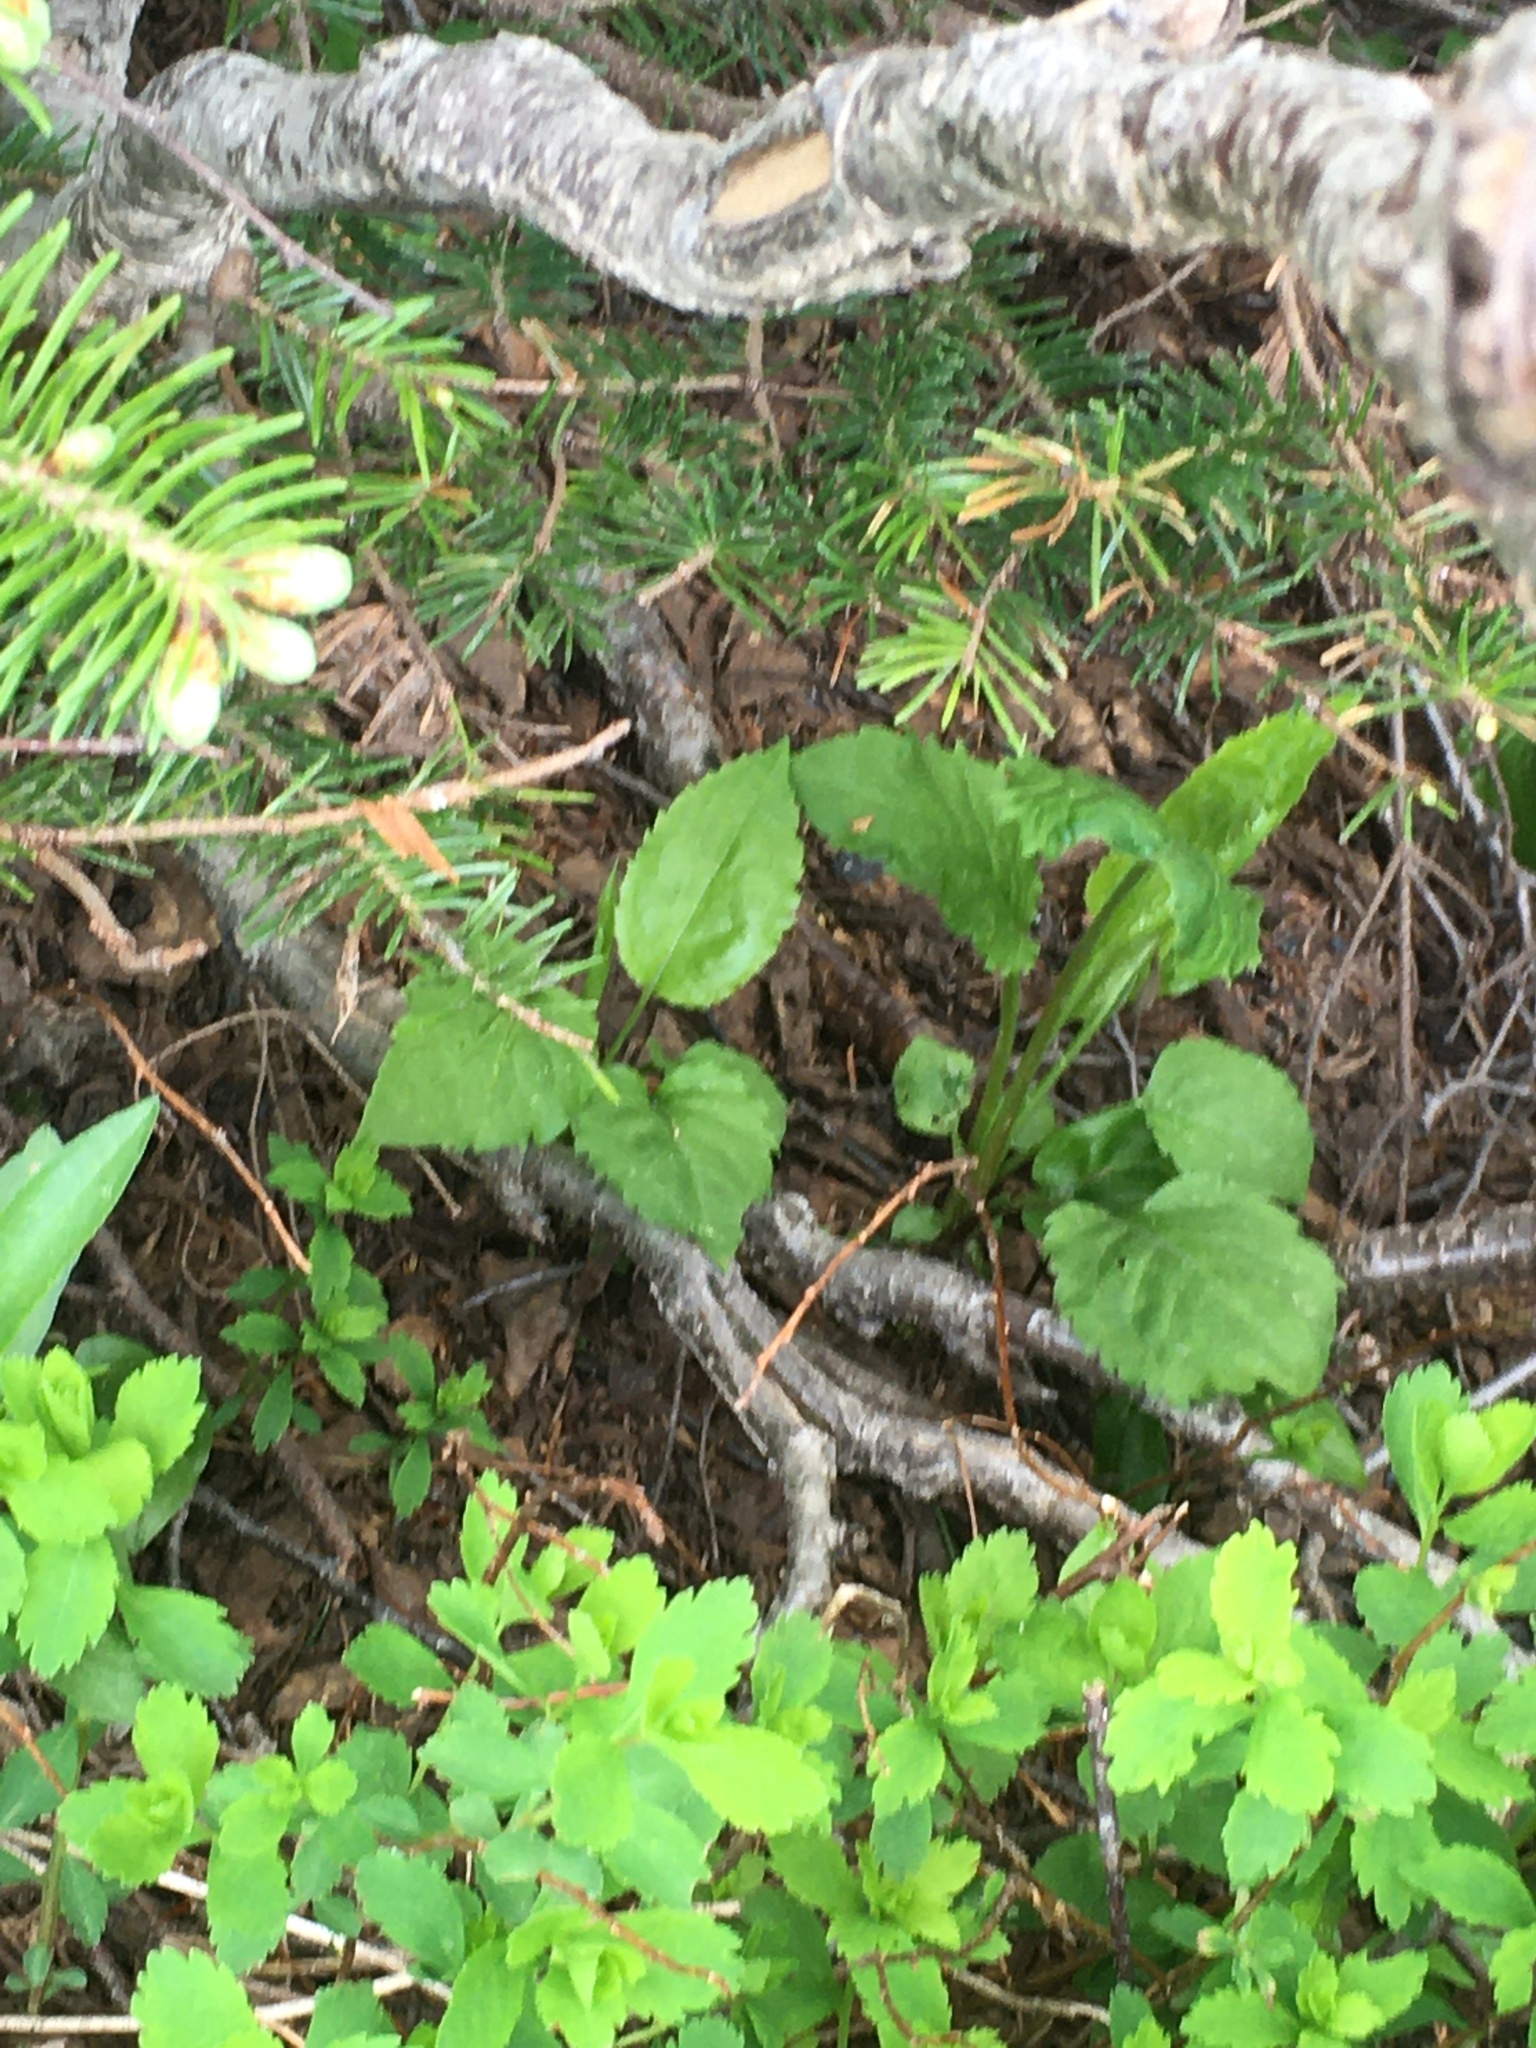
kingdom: Plantae
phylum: Tracheophyta
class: Magnoliopsida
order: Asterales
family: Asteraceae
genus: Solidago
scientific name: Solidago macrophylla
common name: Large-leaved goldenrod
